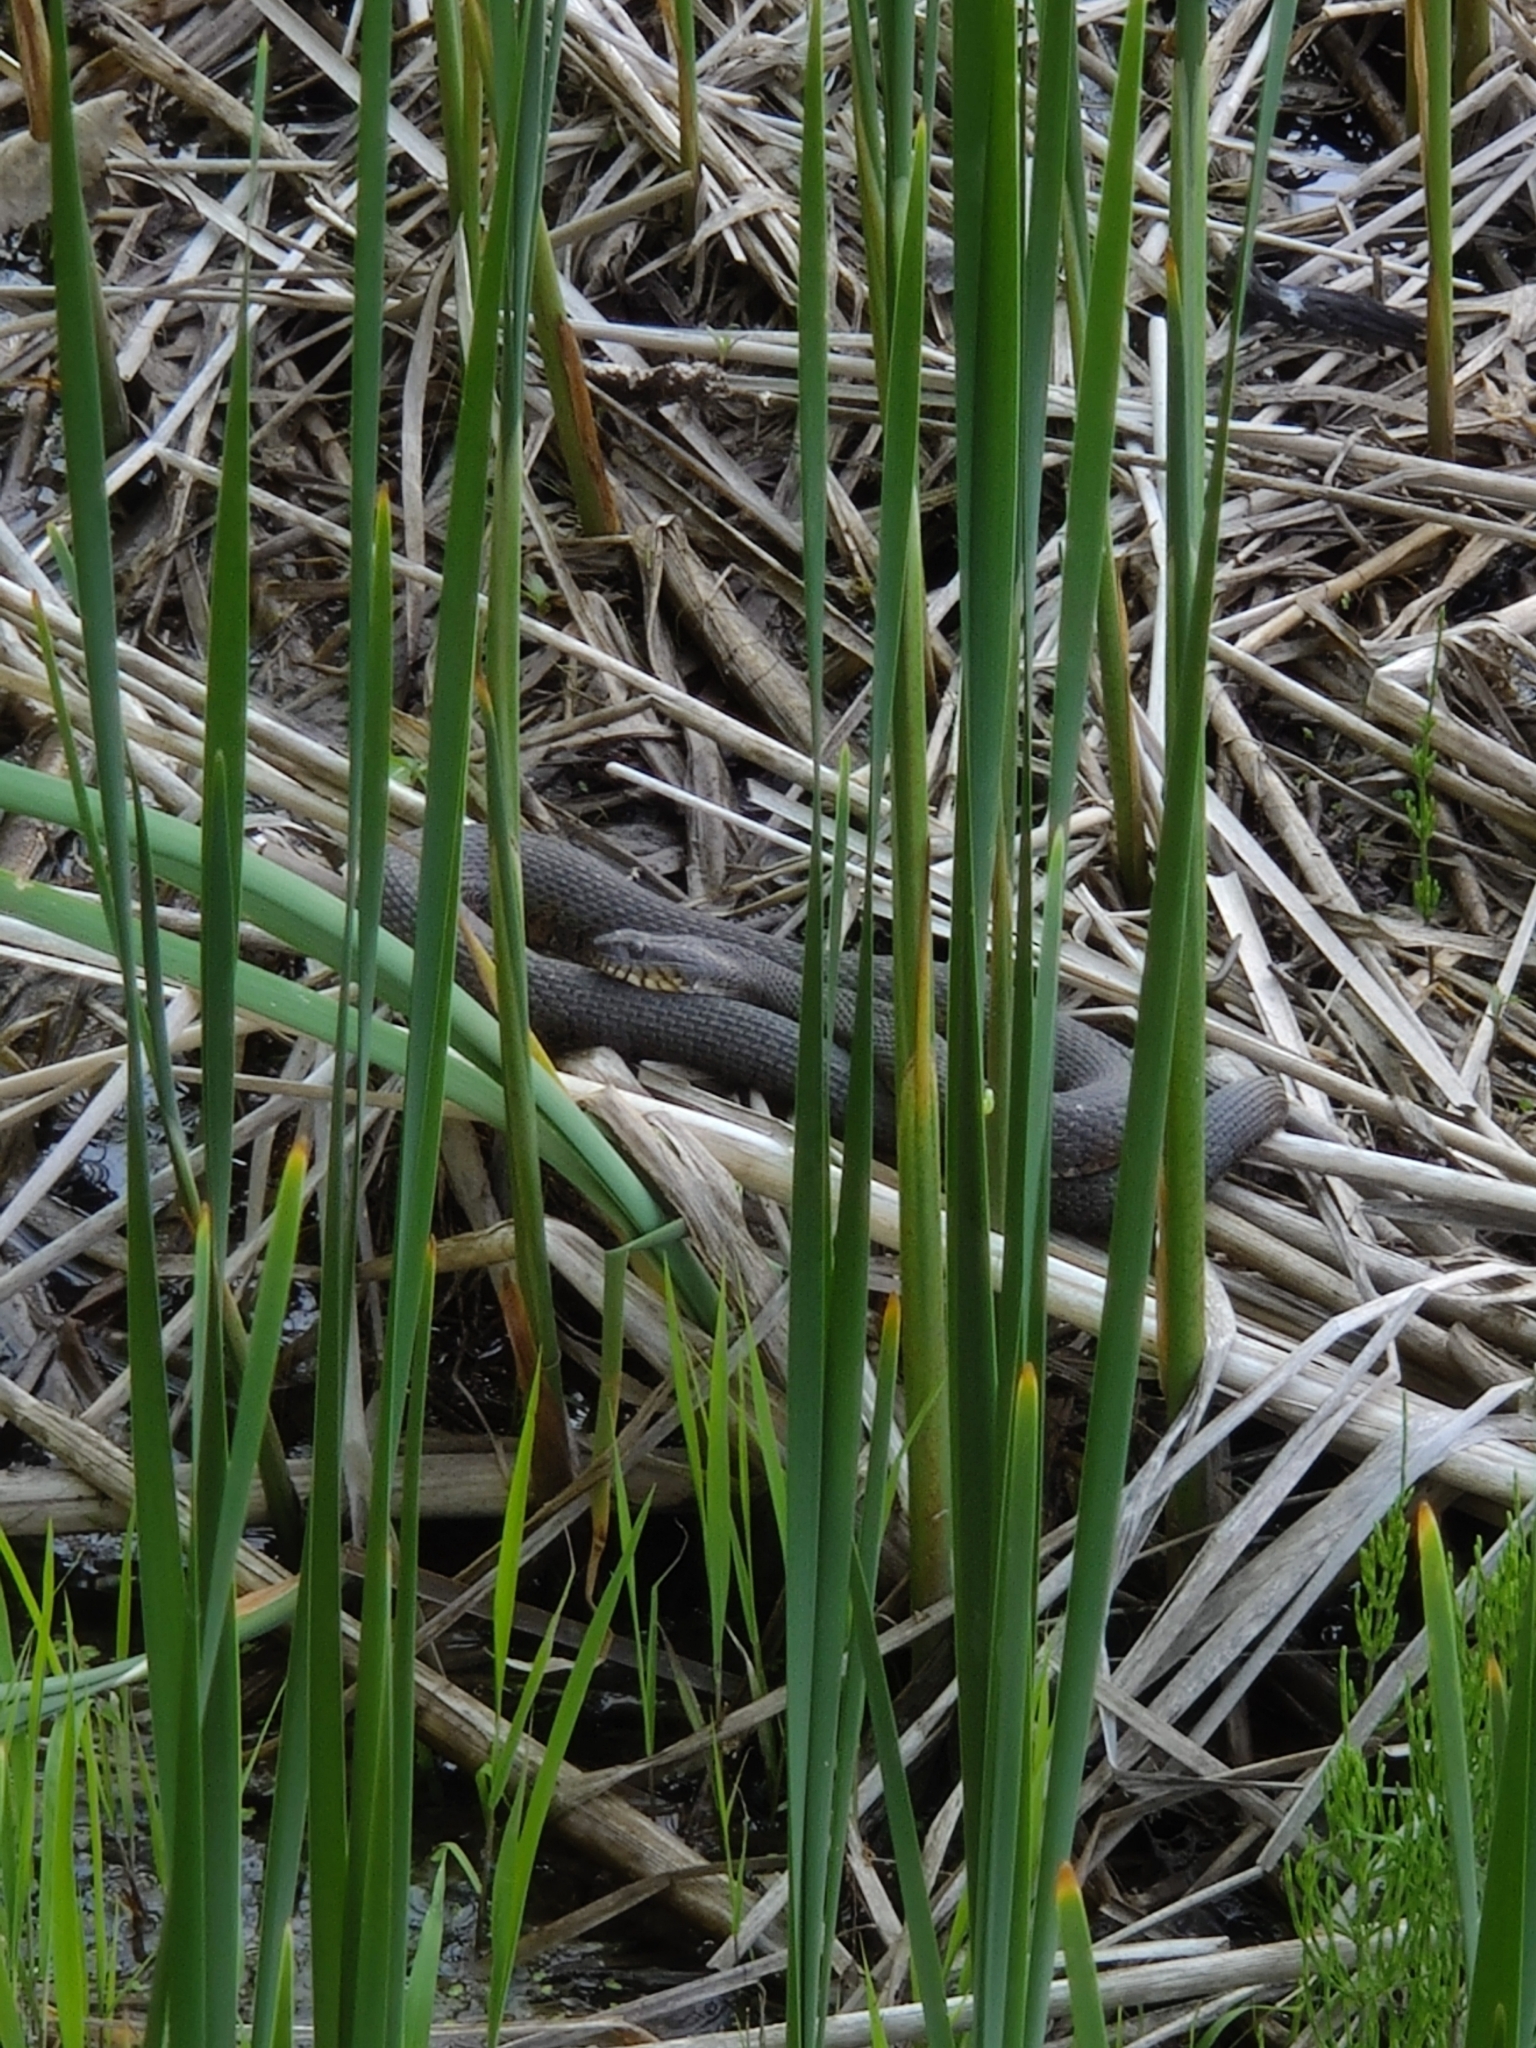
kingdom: Animalia
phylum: Chordata
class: Squamata
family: Colubridae
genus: Nerodia
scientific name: Nerodia sipedon
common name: Northern water snake
